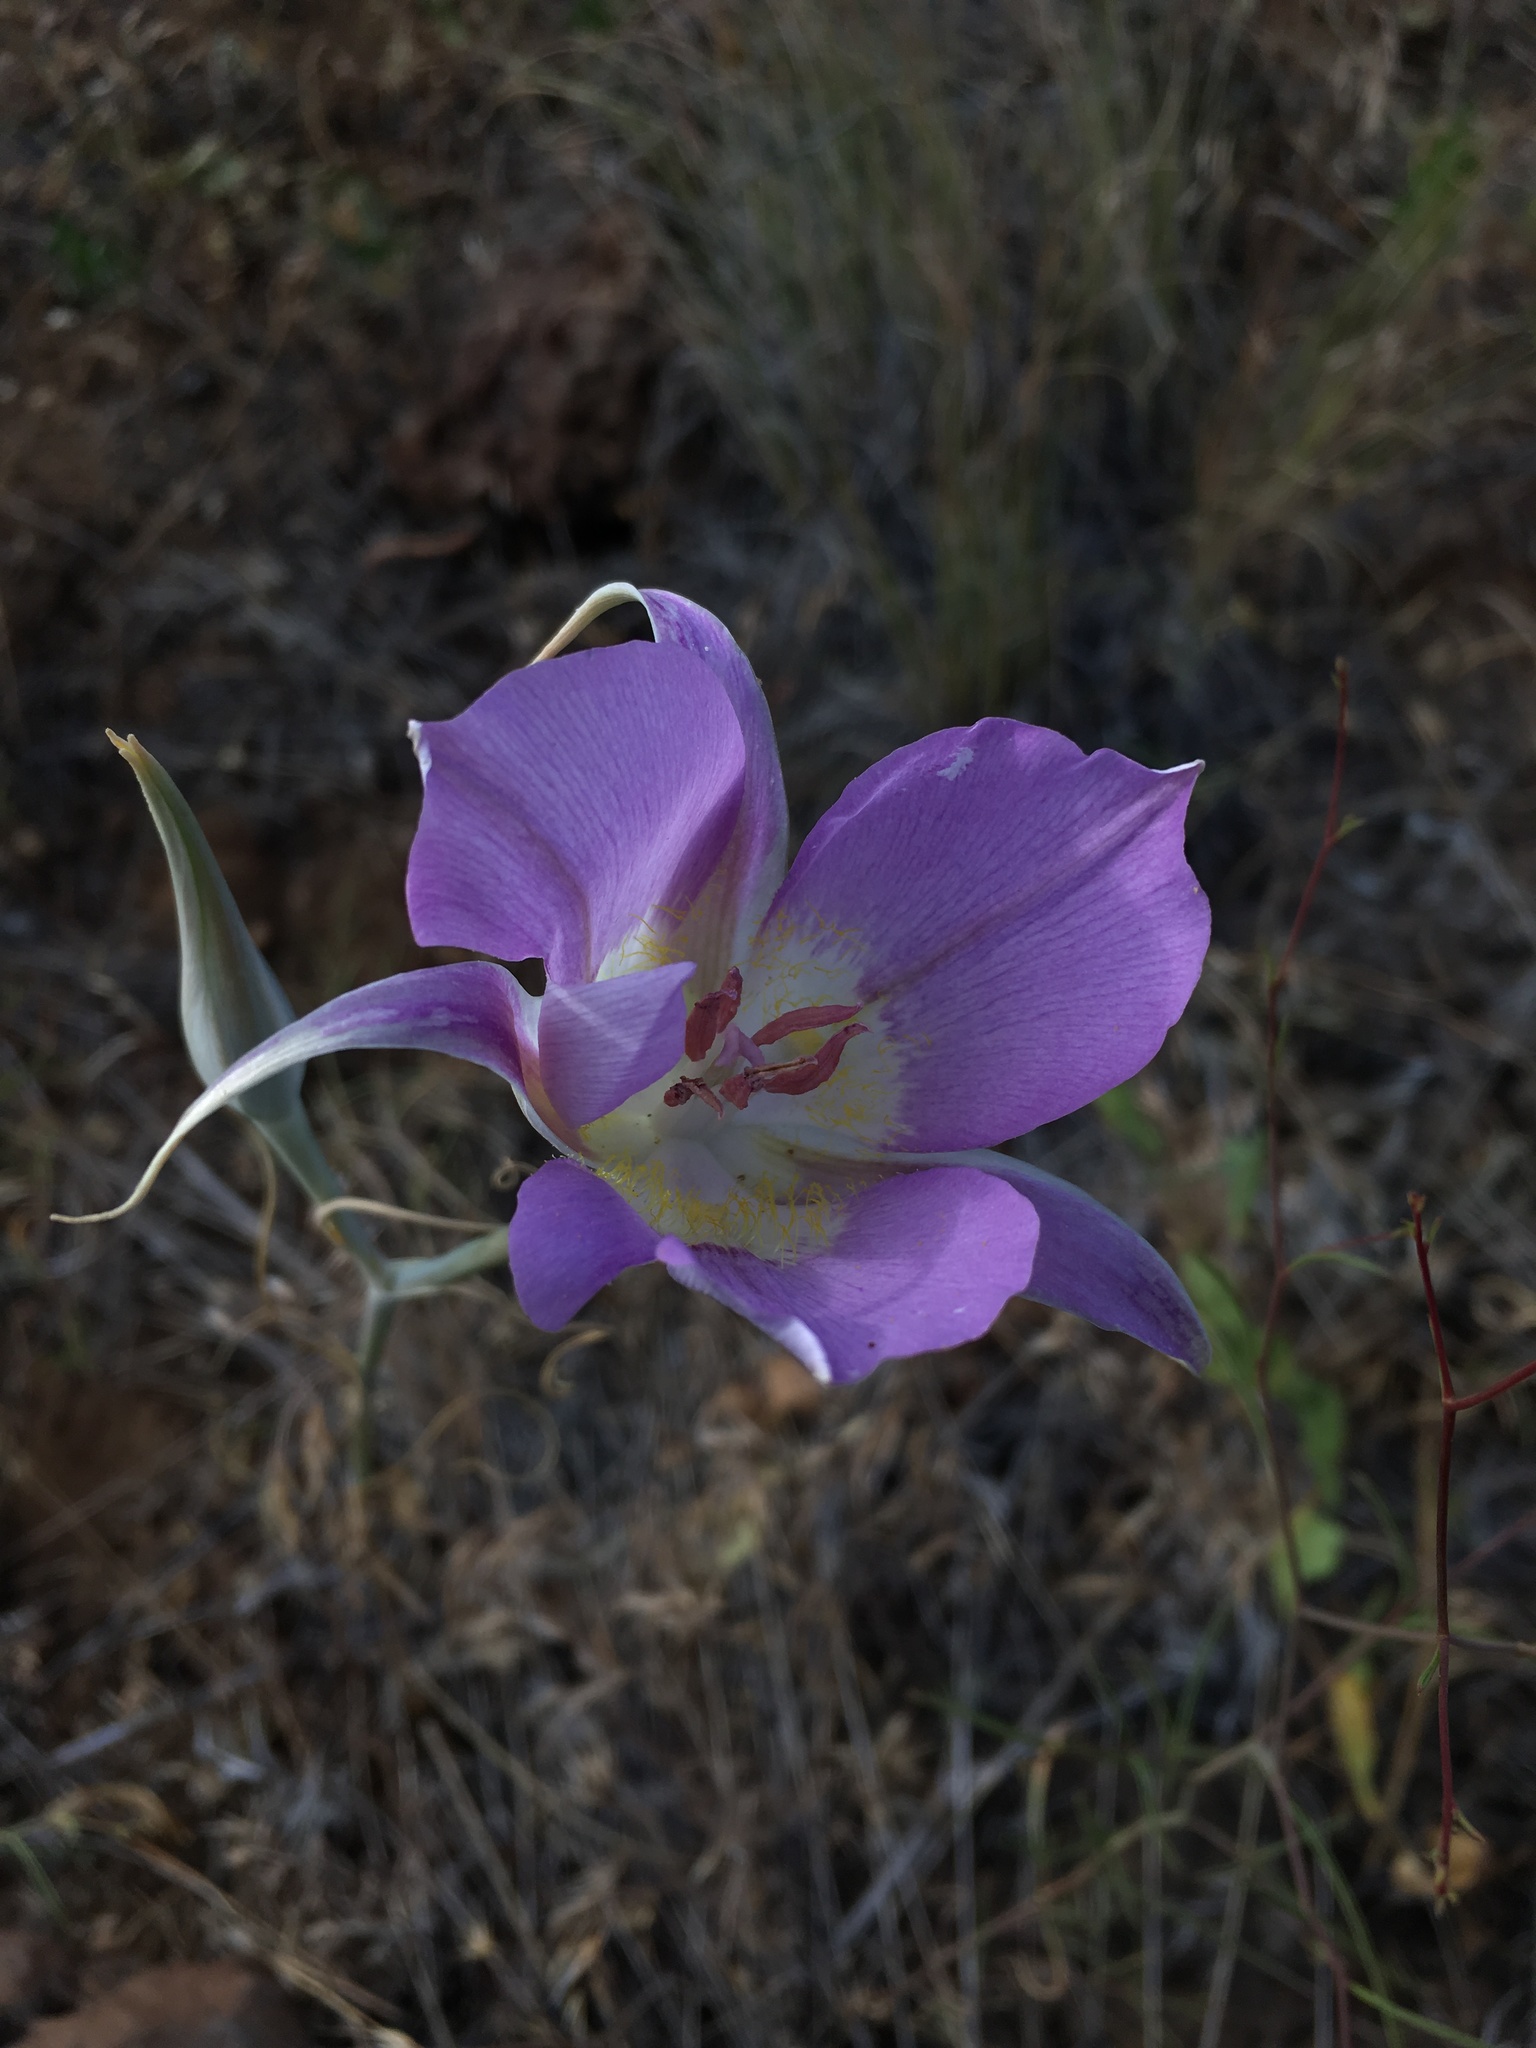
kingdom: Plantae
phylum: Tracheophyta
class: Liliopsida
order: Liliales
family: Liliaceae
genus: Calochortus
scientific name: Calochortus macrocarpus
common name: Green-band mariposa lily
